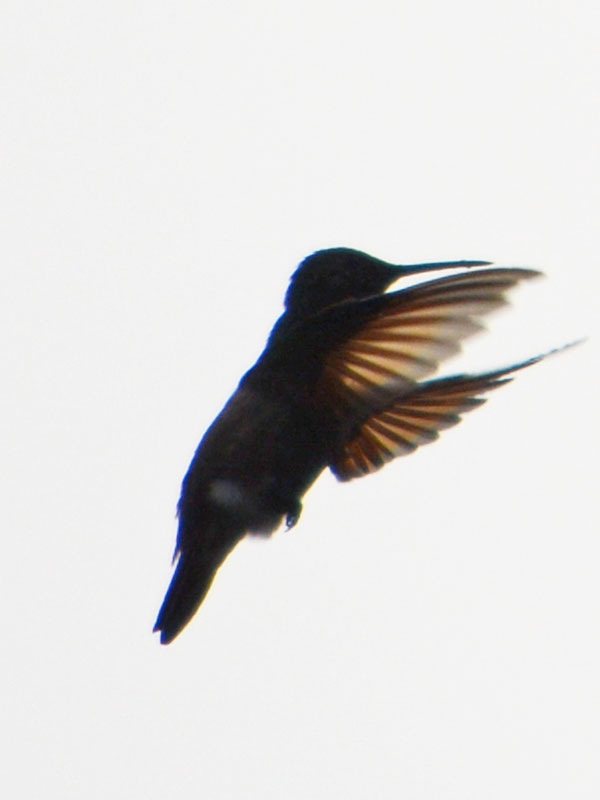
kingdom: Animalia
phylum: Chordata
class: Aves
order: Apodiformes
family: Trochilidae
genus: Saucerottia
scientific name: Saucerottia beryllina
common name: Berylline hummingbird
